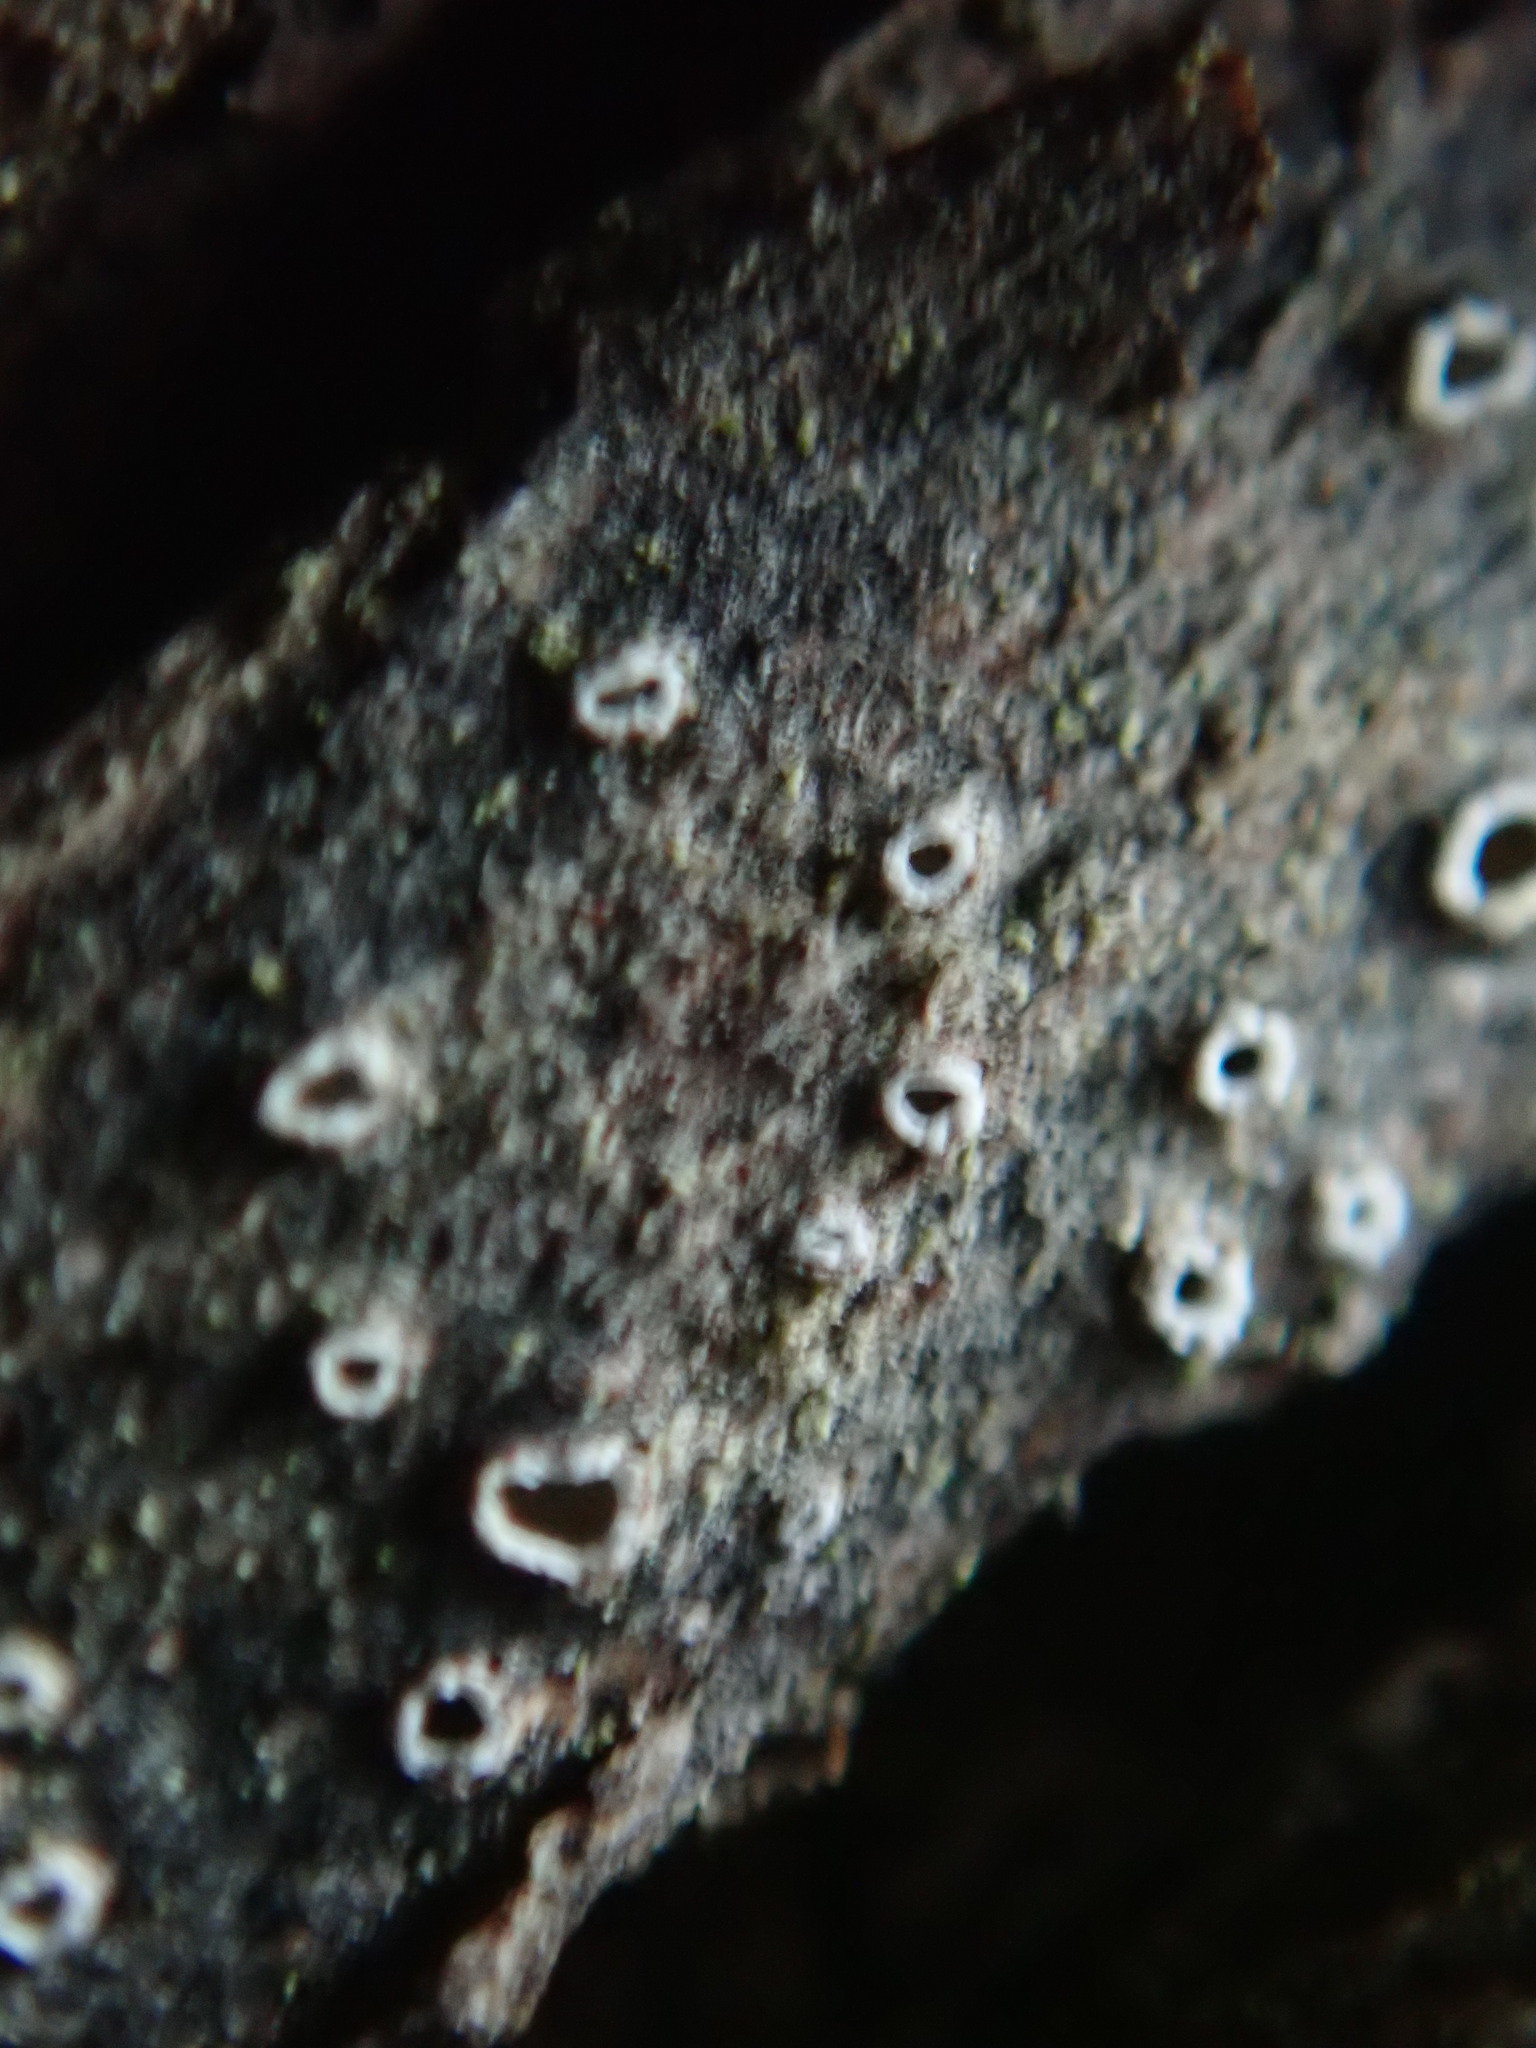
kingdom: Fungi
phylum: Ascomycota
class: Lecanoromycetes
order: Ostropales
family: Stictidaceae
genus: Stictis
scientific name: Stictis radiata
